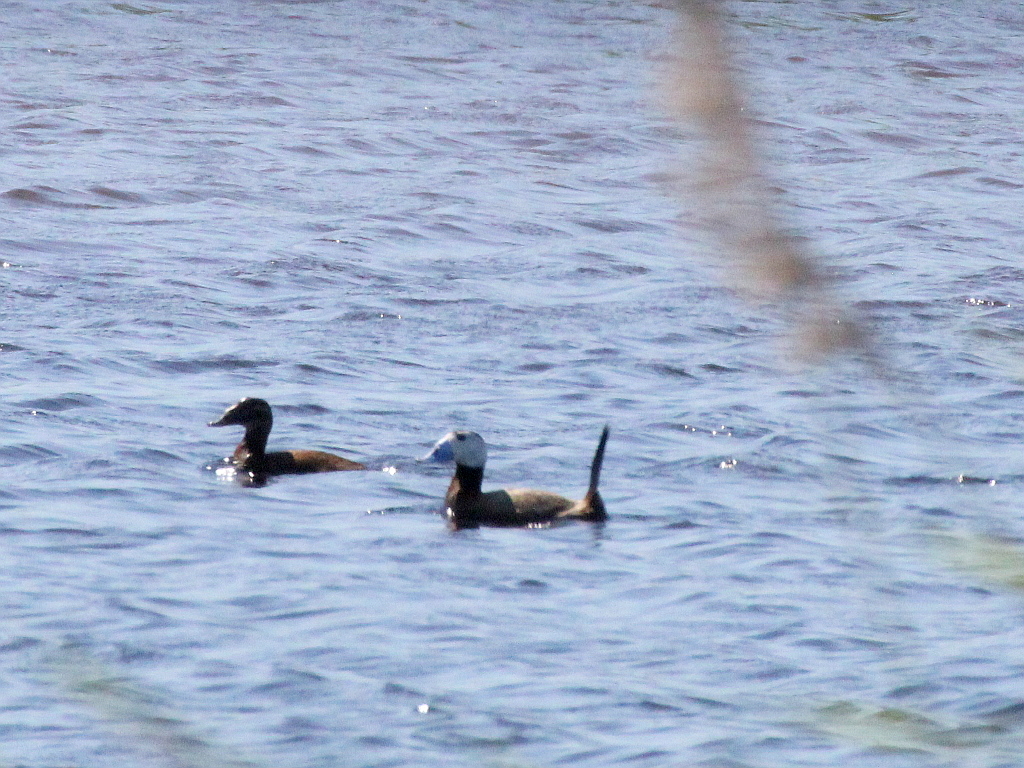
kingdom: Animalia
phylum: Chordata
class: Aves
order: Anseriformes
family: Anatidae
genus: Oxyura
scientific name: Oxyura leucocephala
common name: White-headed duck
